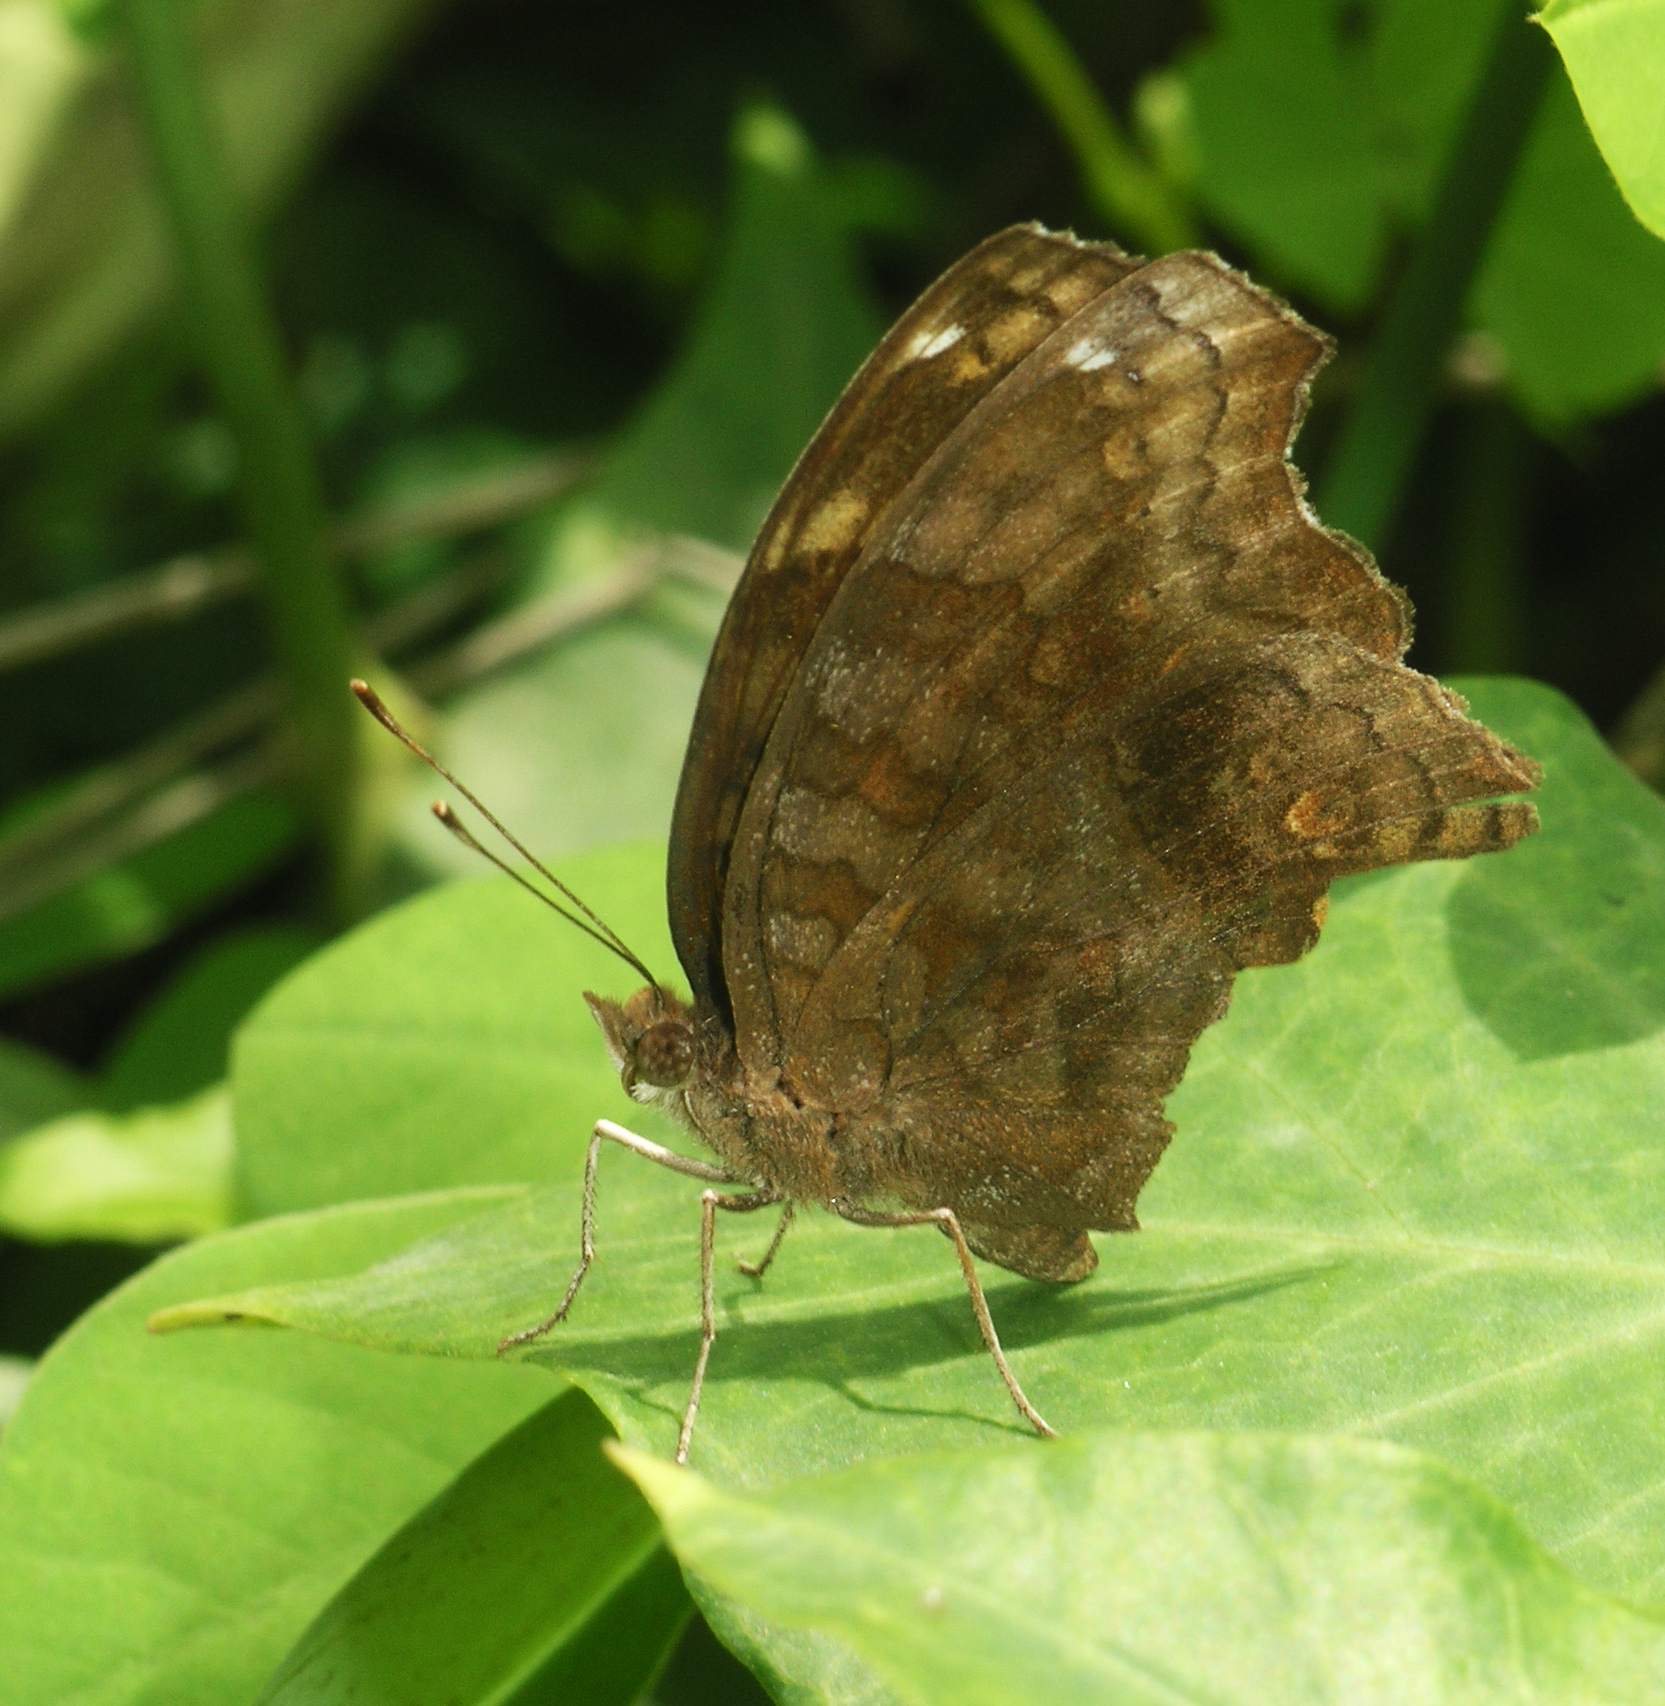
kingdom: Animalia
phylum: Arthropoda
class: Insecta
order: Lepidoptera
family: Nymphalidae
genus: Junonia
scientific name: Junonia chorimene
